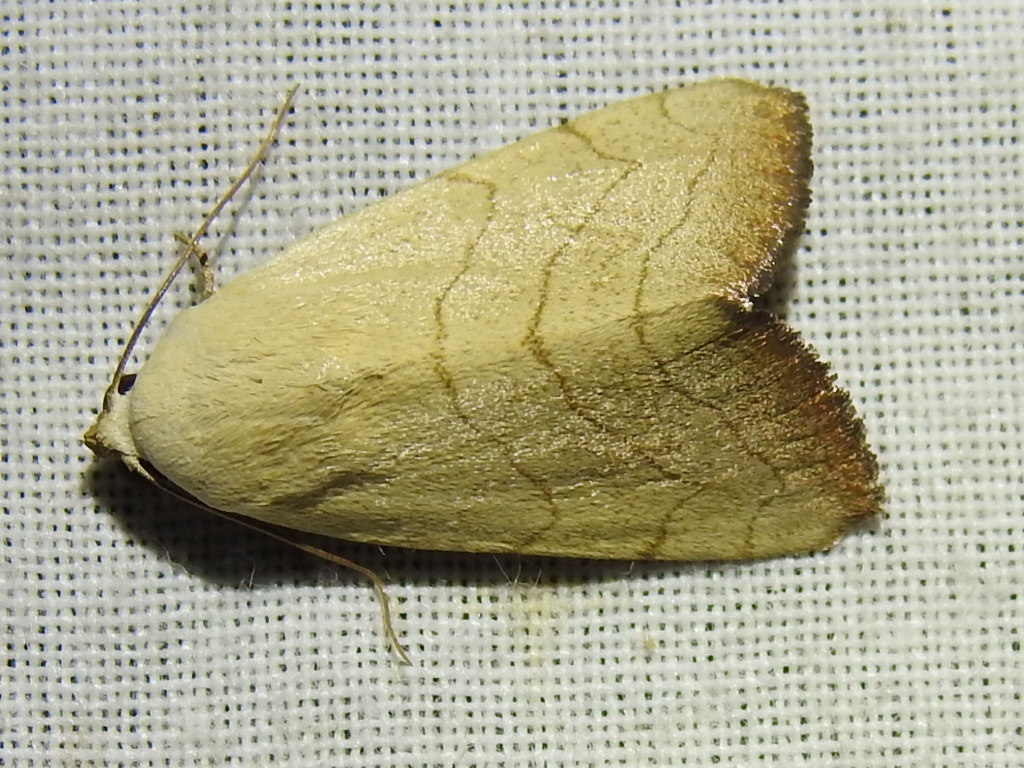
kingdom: Animalia
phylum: Arthropoda
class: Insecta
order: Lepidoptera
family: Noctuidae
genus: Bagisara
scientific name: Bagisara buxea
